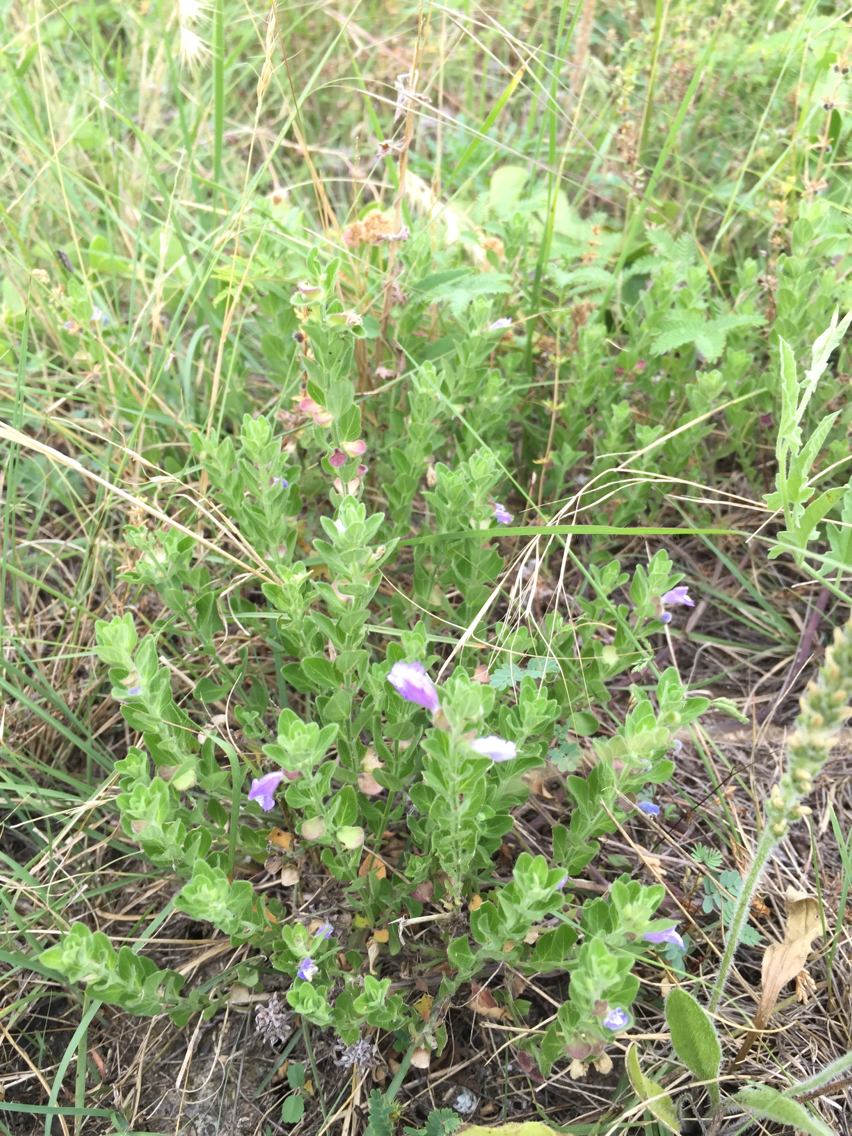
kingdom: Plantae
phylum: Tracheophyta
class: Magnoliopsida
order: Lamiales
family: Lamiaceae
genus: Scutellaria
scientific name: Scutellaria drummondii
